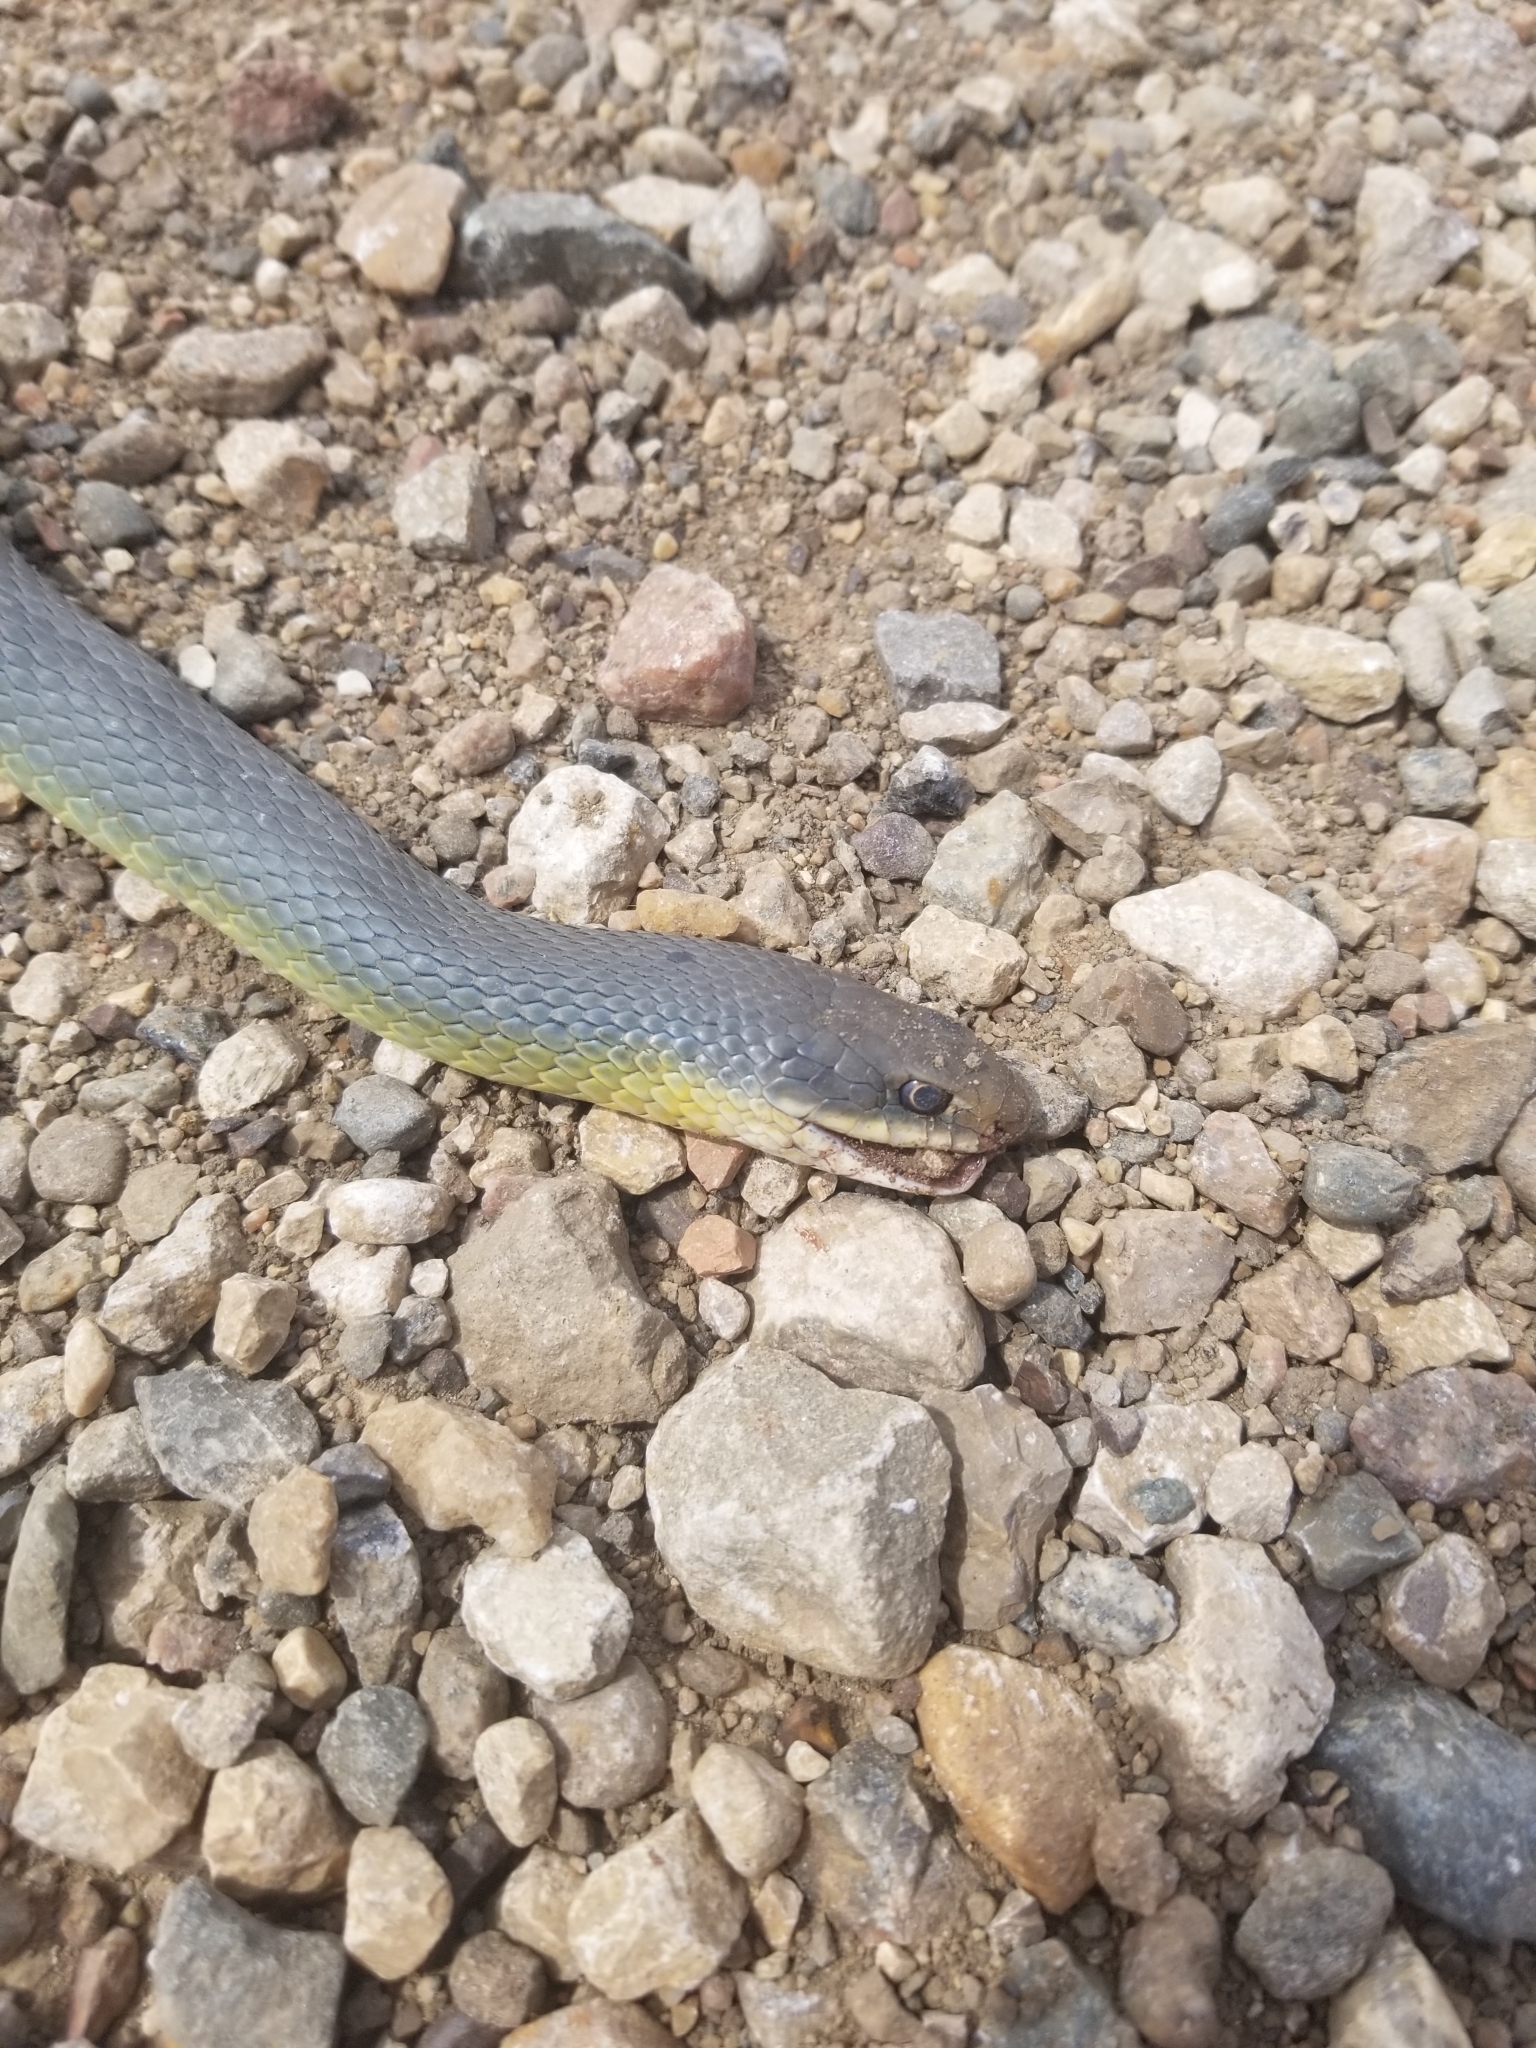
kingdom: Animalia
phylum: Chordata
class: Squamata
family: Colubridae
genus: Coluber
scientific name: Coluber constrictor
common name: Eastern racer
